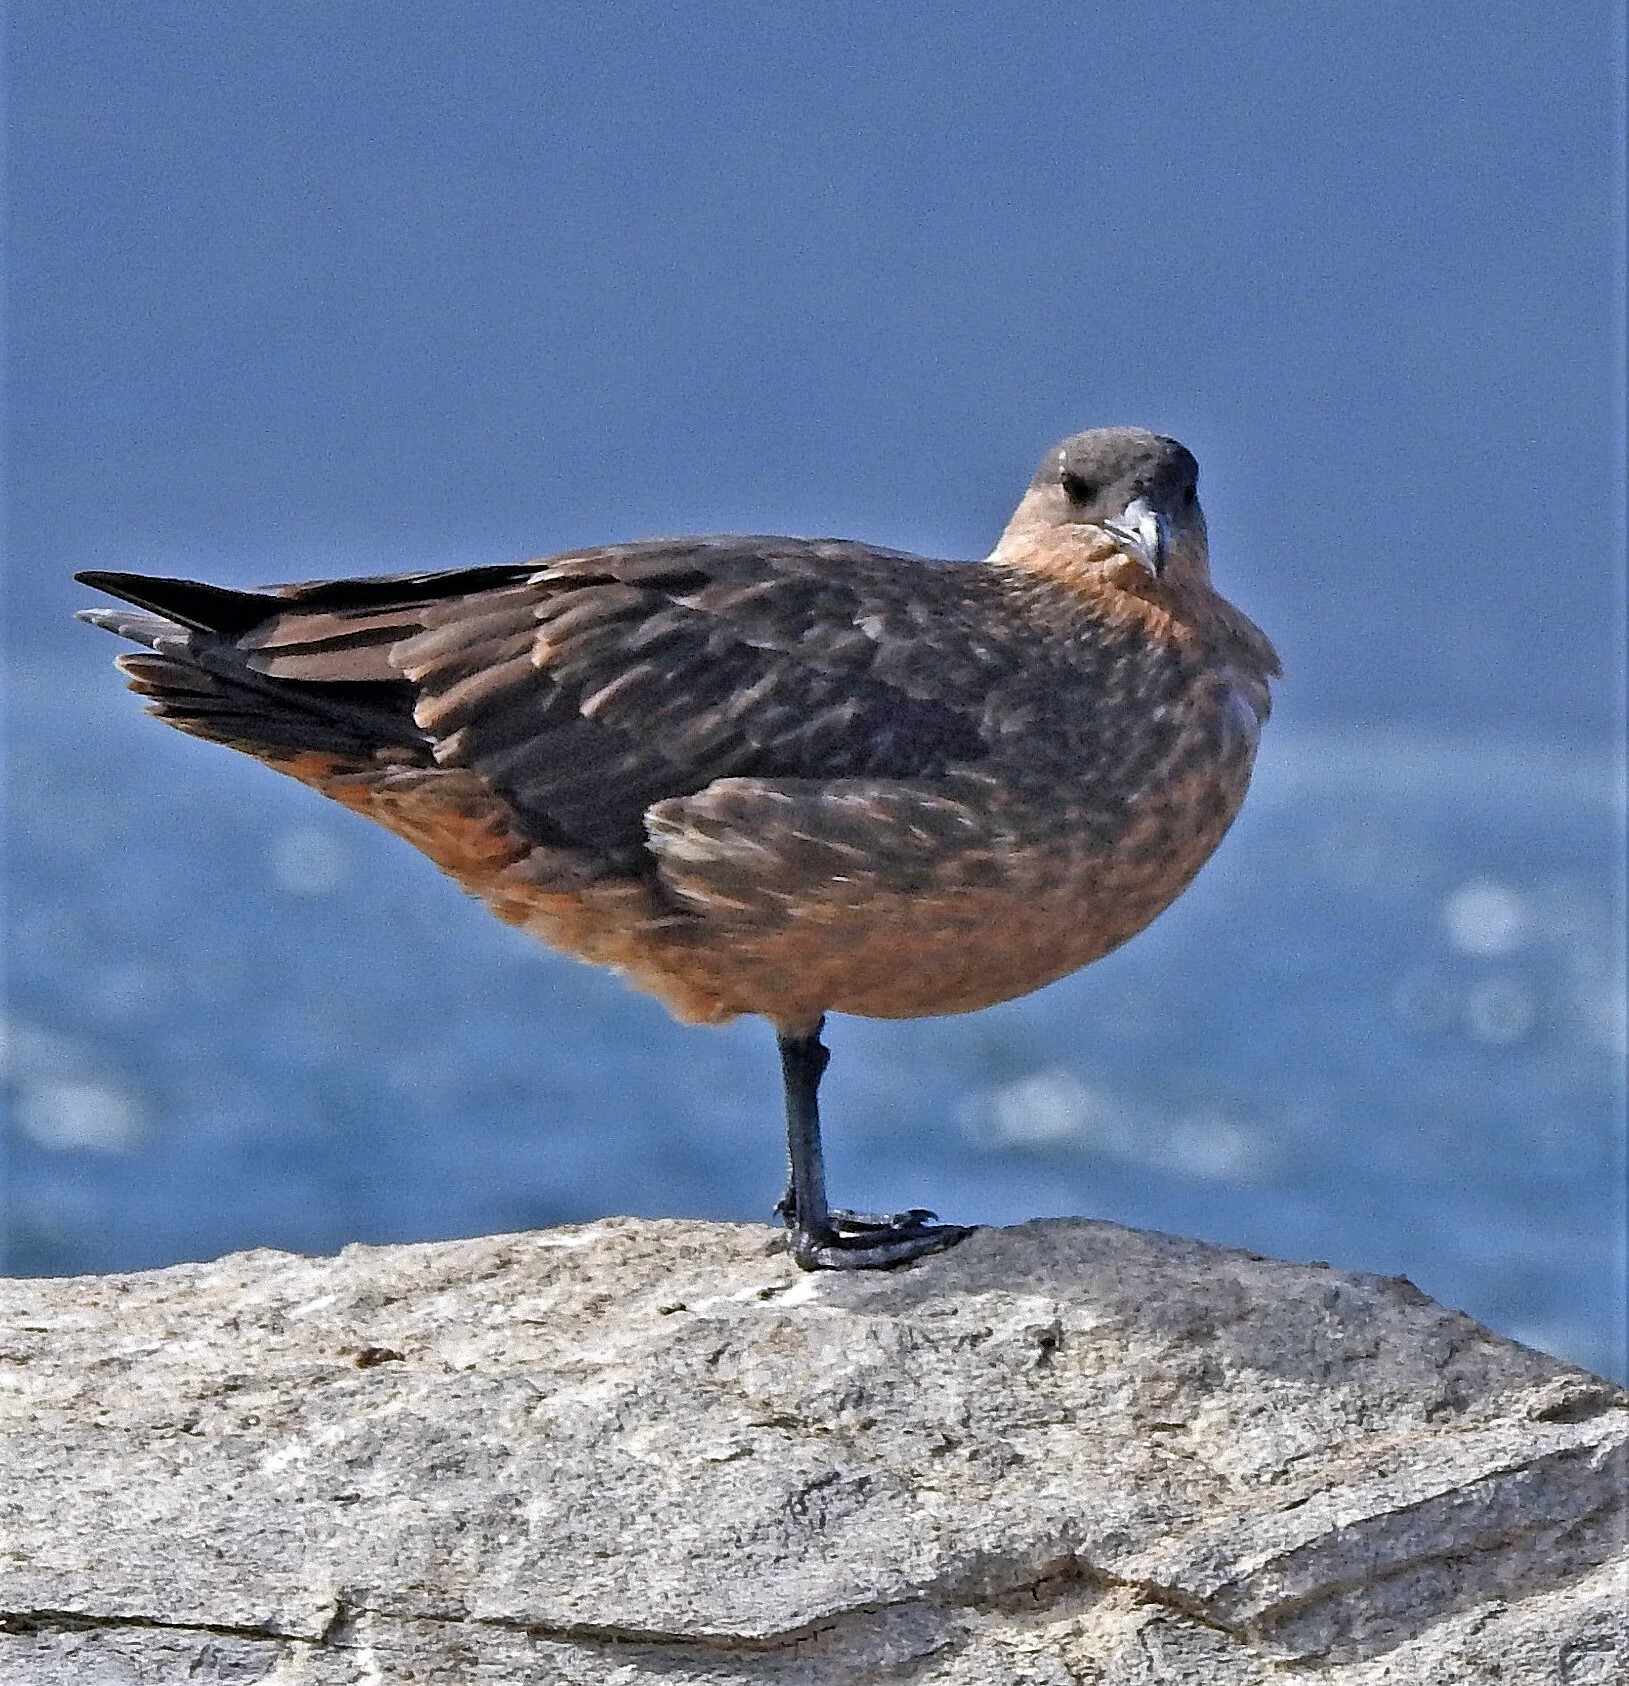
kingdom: Animalia
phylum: Chordata
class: Aves
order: Charadriiformes
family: Stercorariidae
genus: Stercorarius
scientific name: Stercorarius chilensis
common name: Chilean skua
